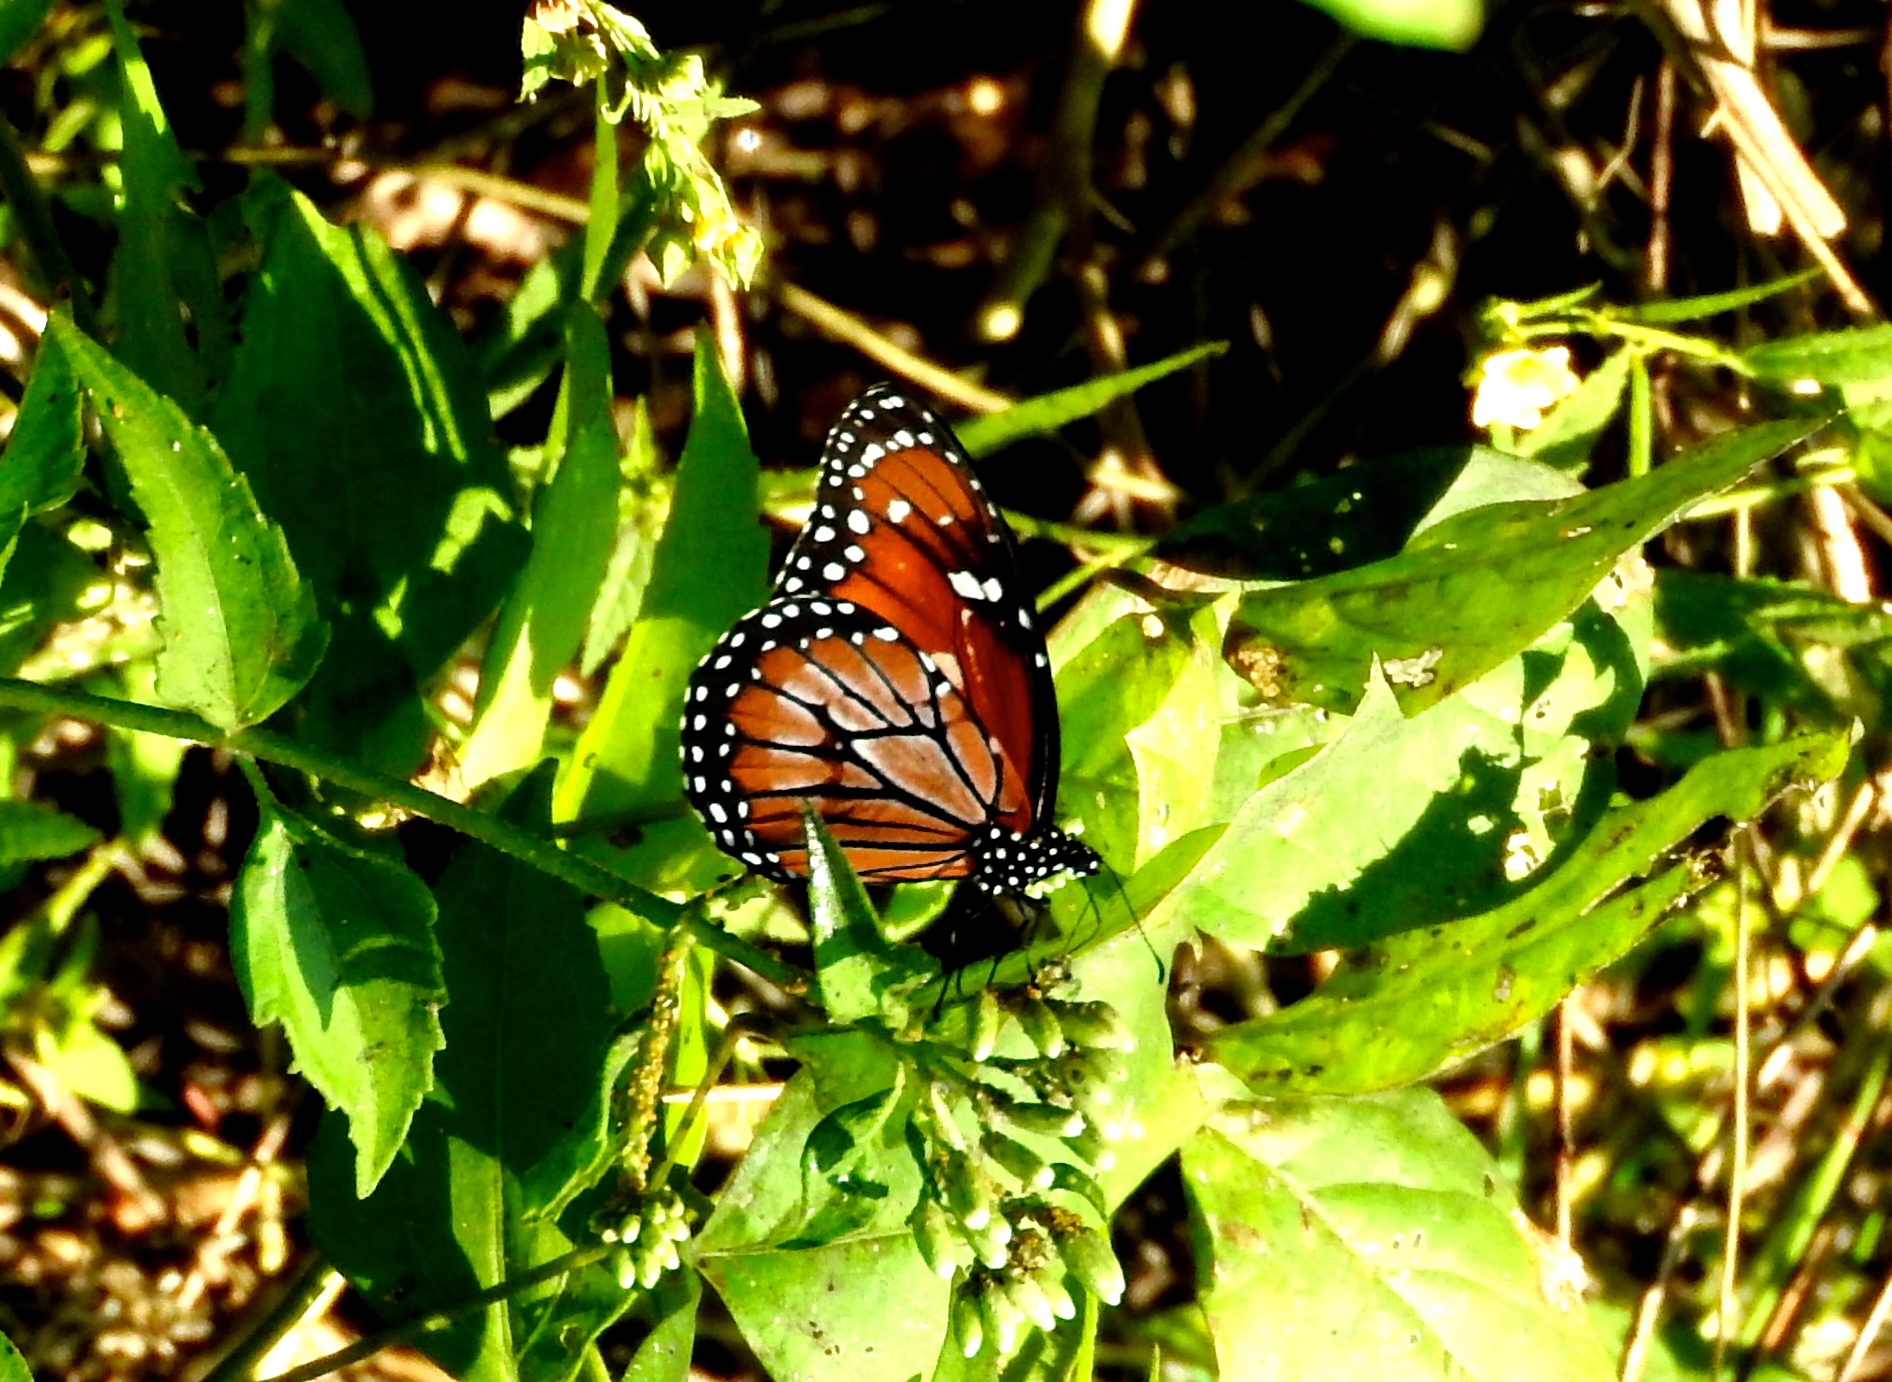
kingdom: Animalia
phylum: Arthropoda
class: Insecta
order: Lepidoptera
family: Nymphalidae
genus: Danaus
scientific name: Danaus eresimus
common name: Soldier
